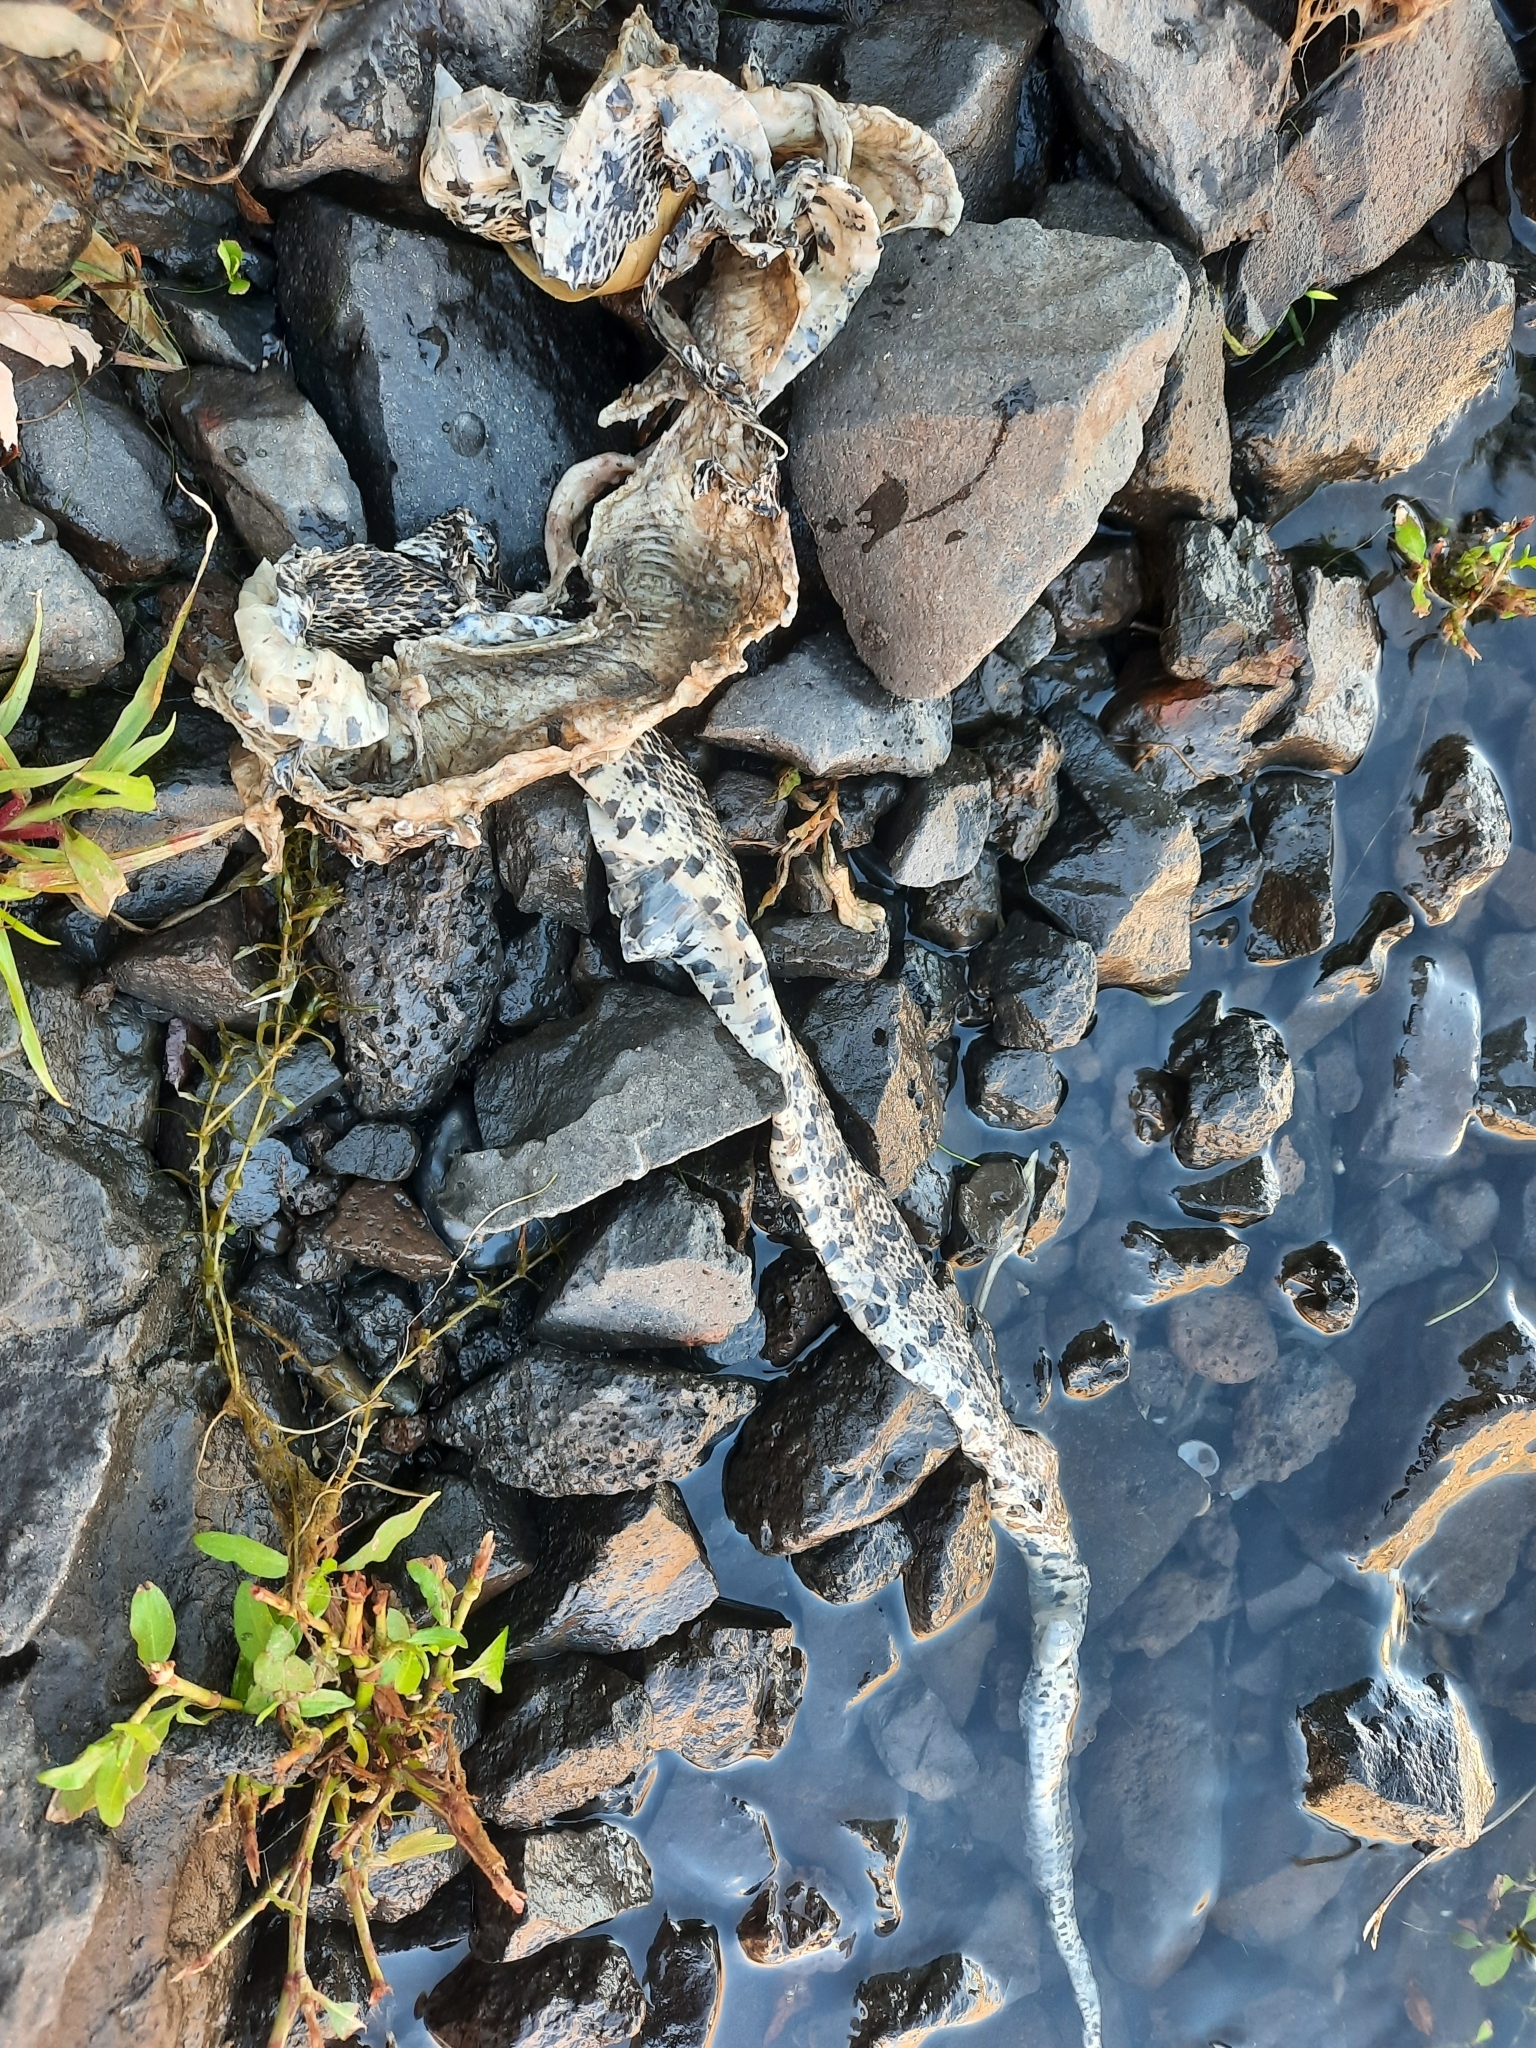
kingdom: Animalia
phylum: Chordata
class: Squamata
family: Colubridae
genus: Pituophis
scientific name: Pituophis catenifer
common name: Gopher snake
